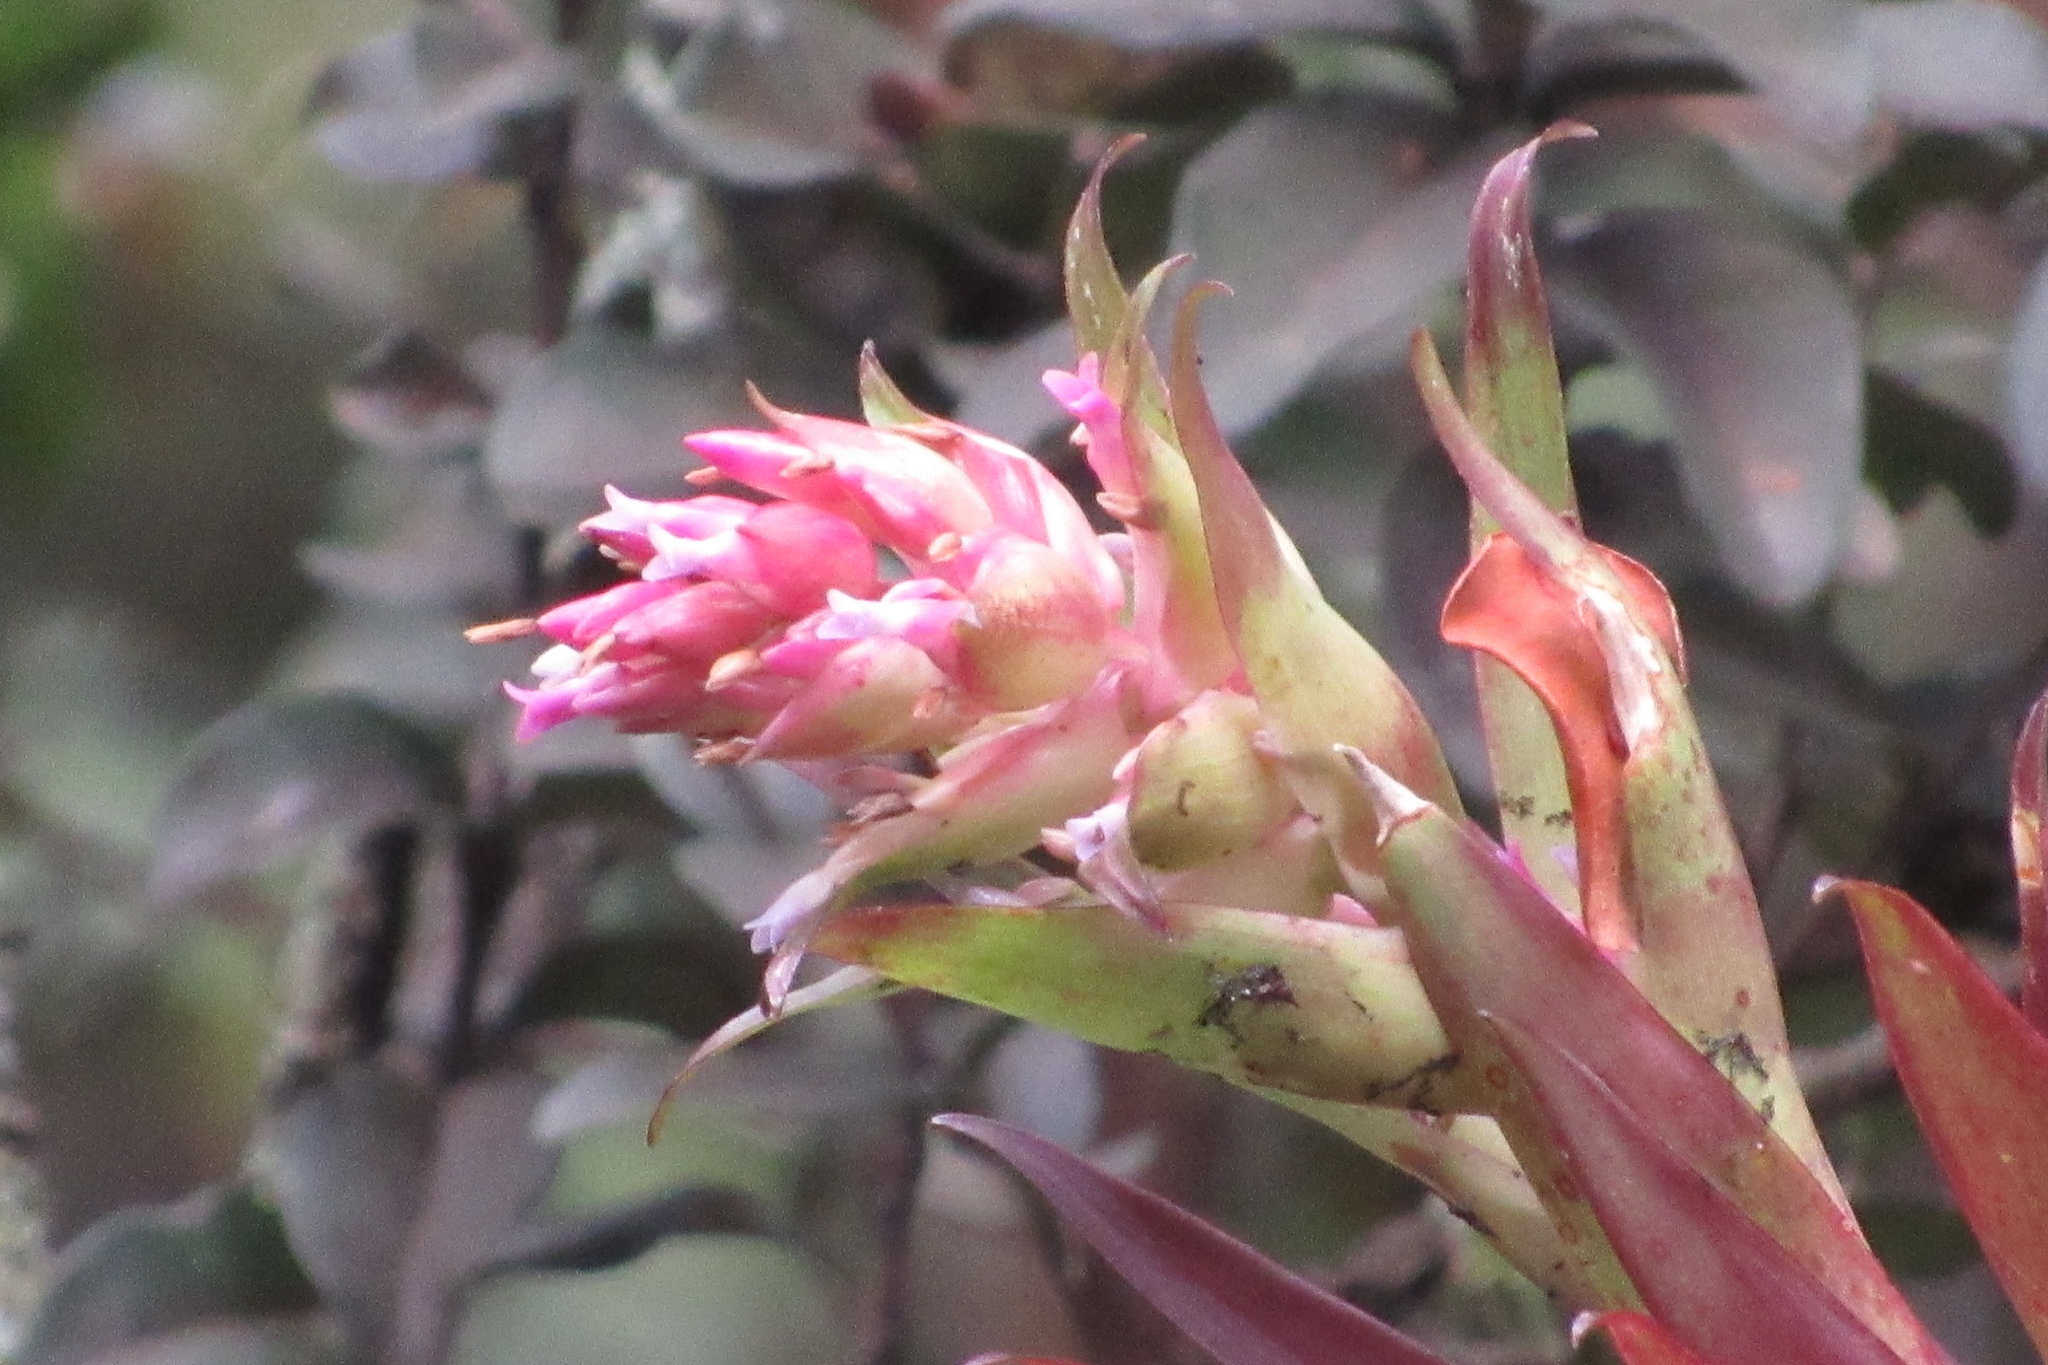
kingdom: Plantae
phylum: Tracheophyta
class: Liliopsida
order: Poales
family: Bromeliaceae
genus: Tillandsia
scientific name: Tillandsia biflora
